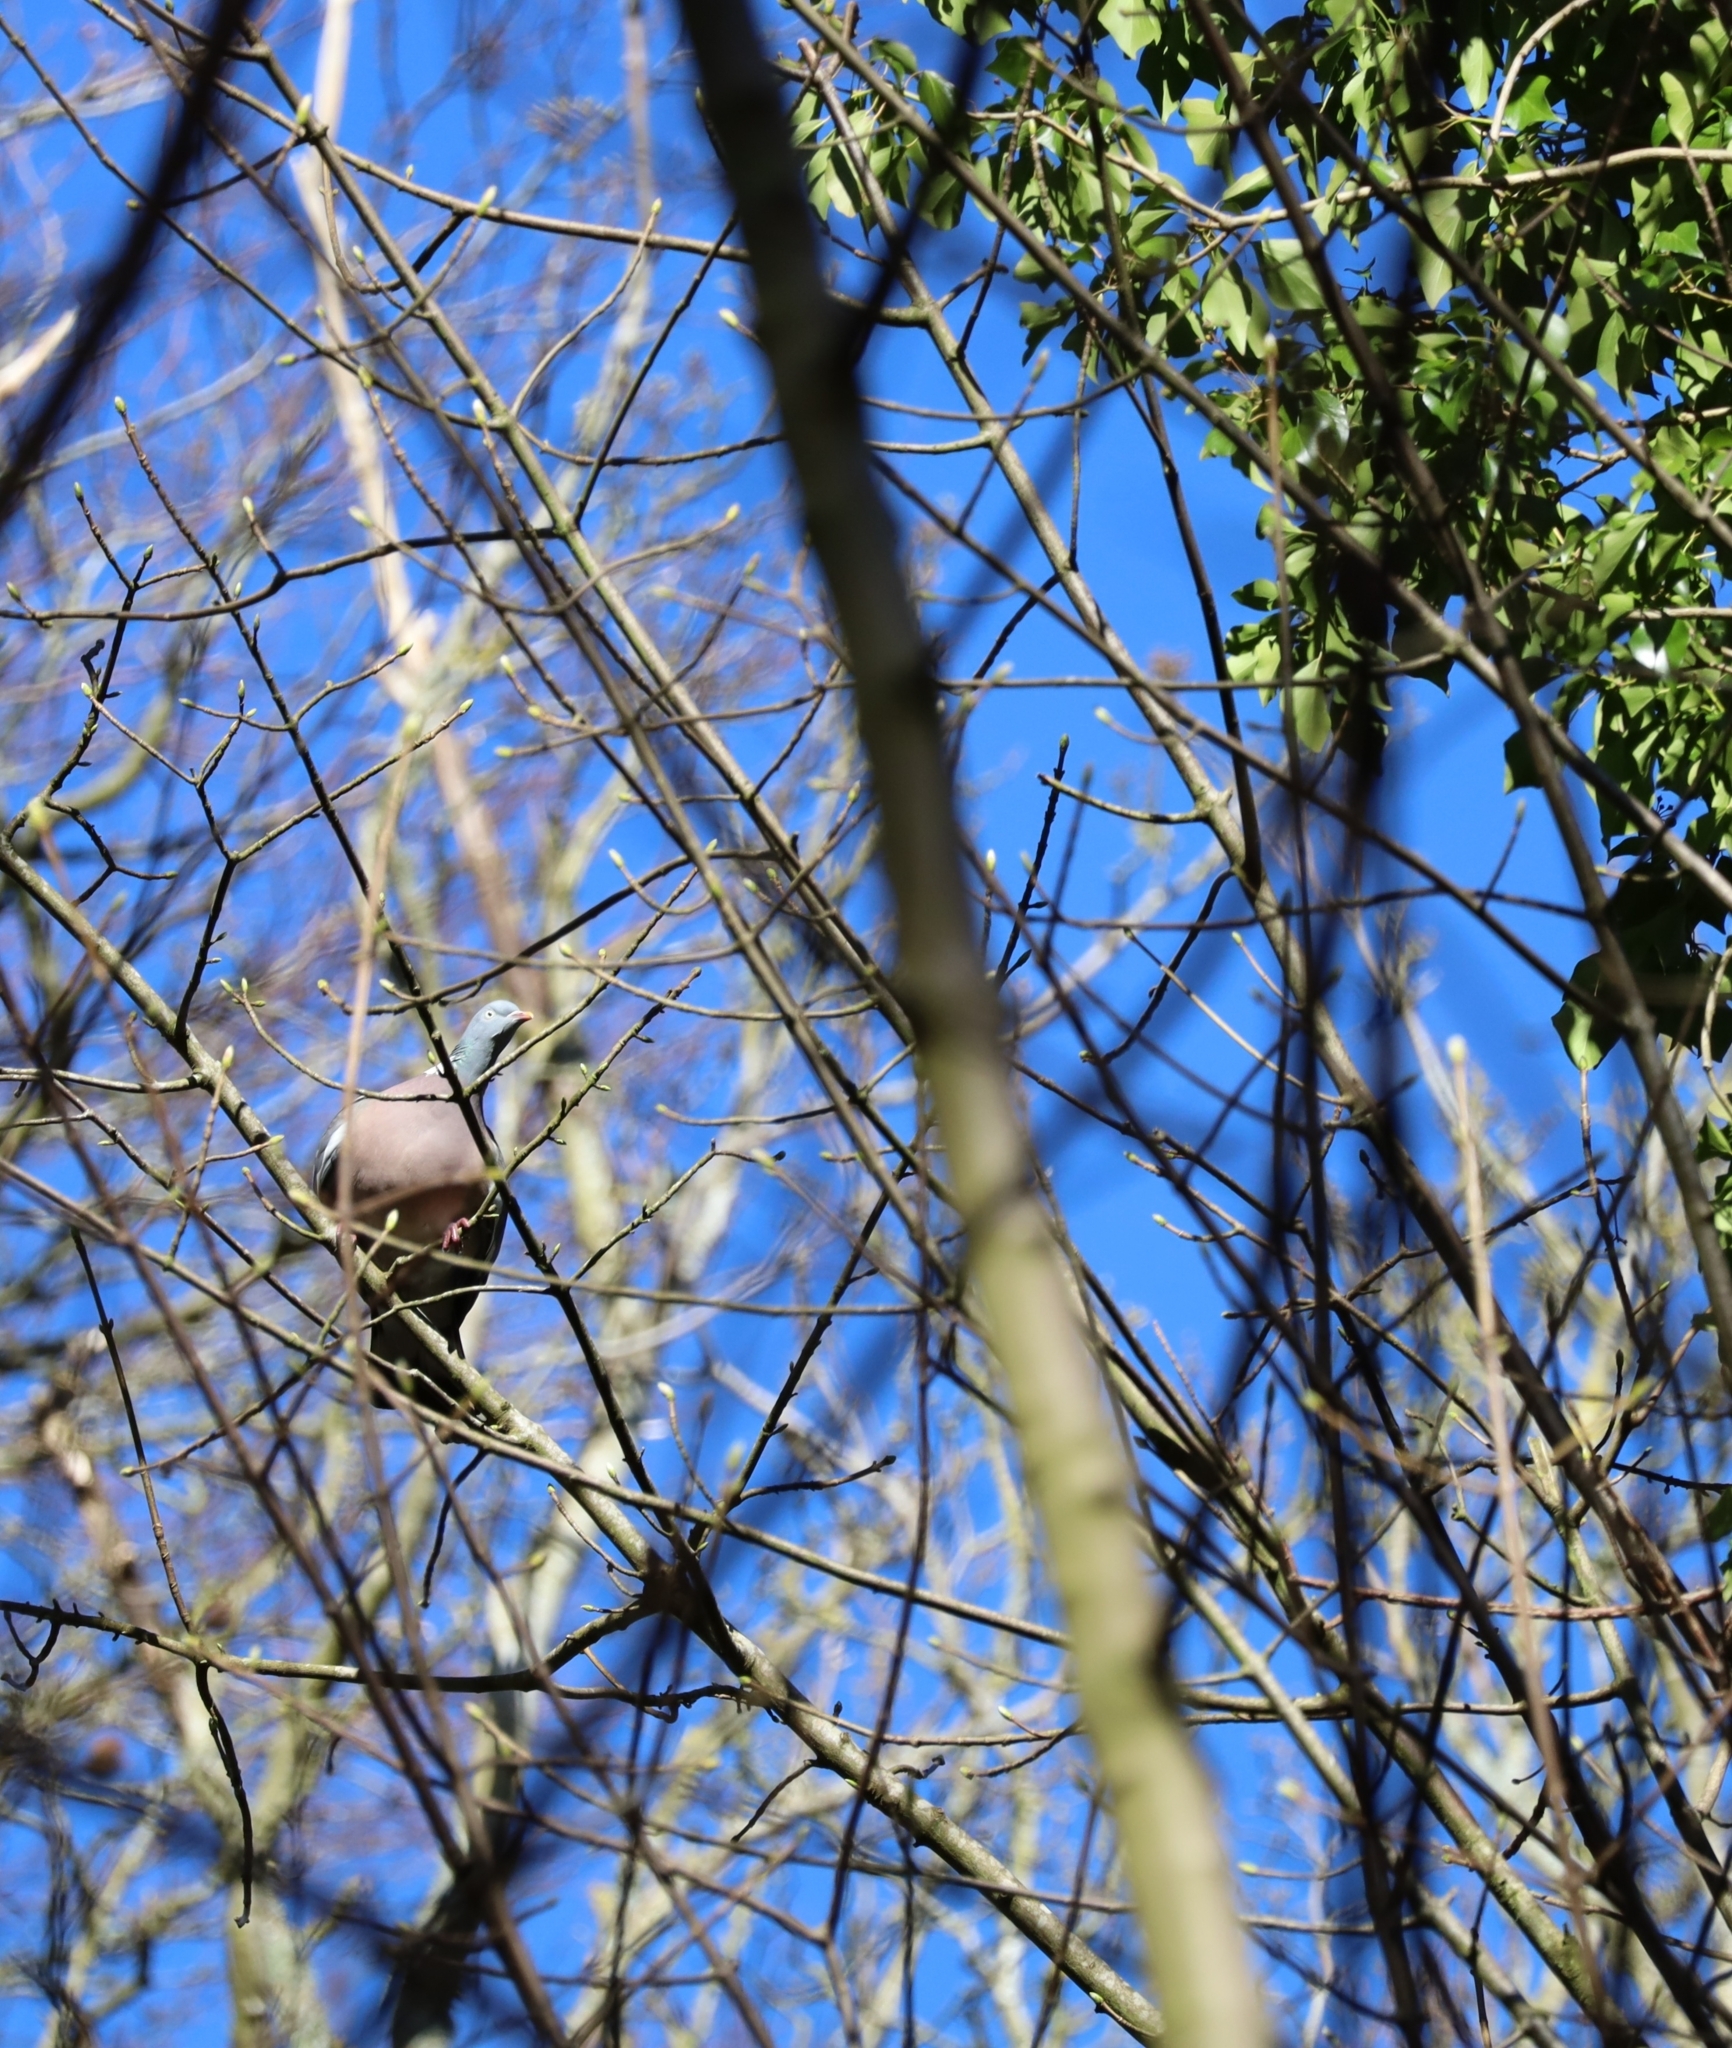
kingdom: Animalia
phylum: Chordata
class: Aves
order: Columbiformes
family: Columbidae
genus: Columba
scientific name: Columba palumbus
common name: Common wood pigeon
